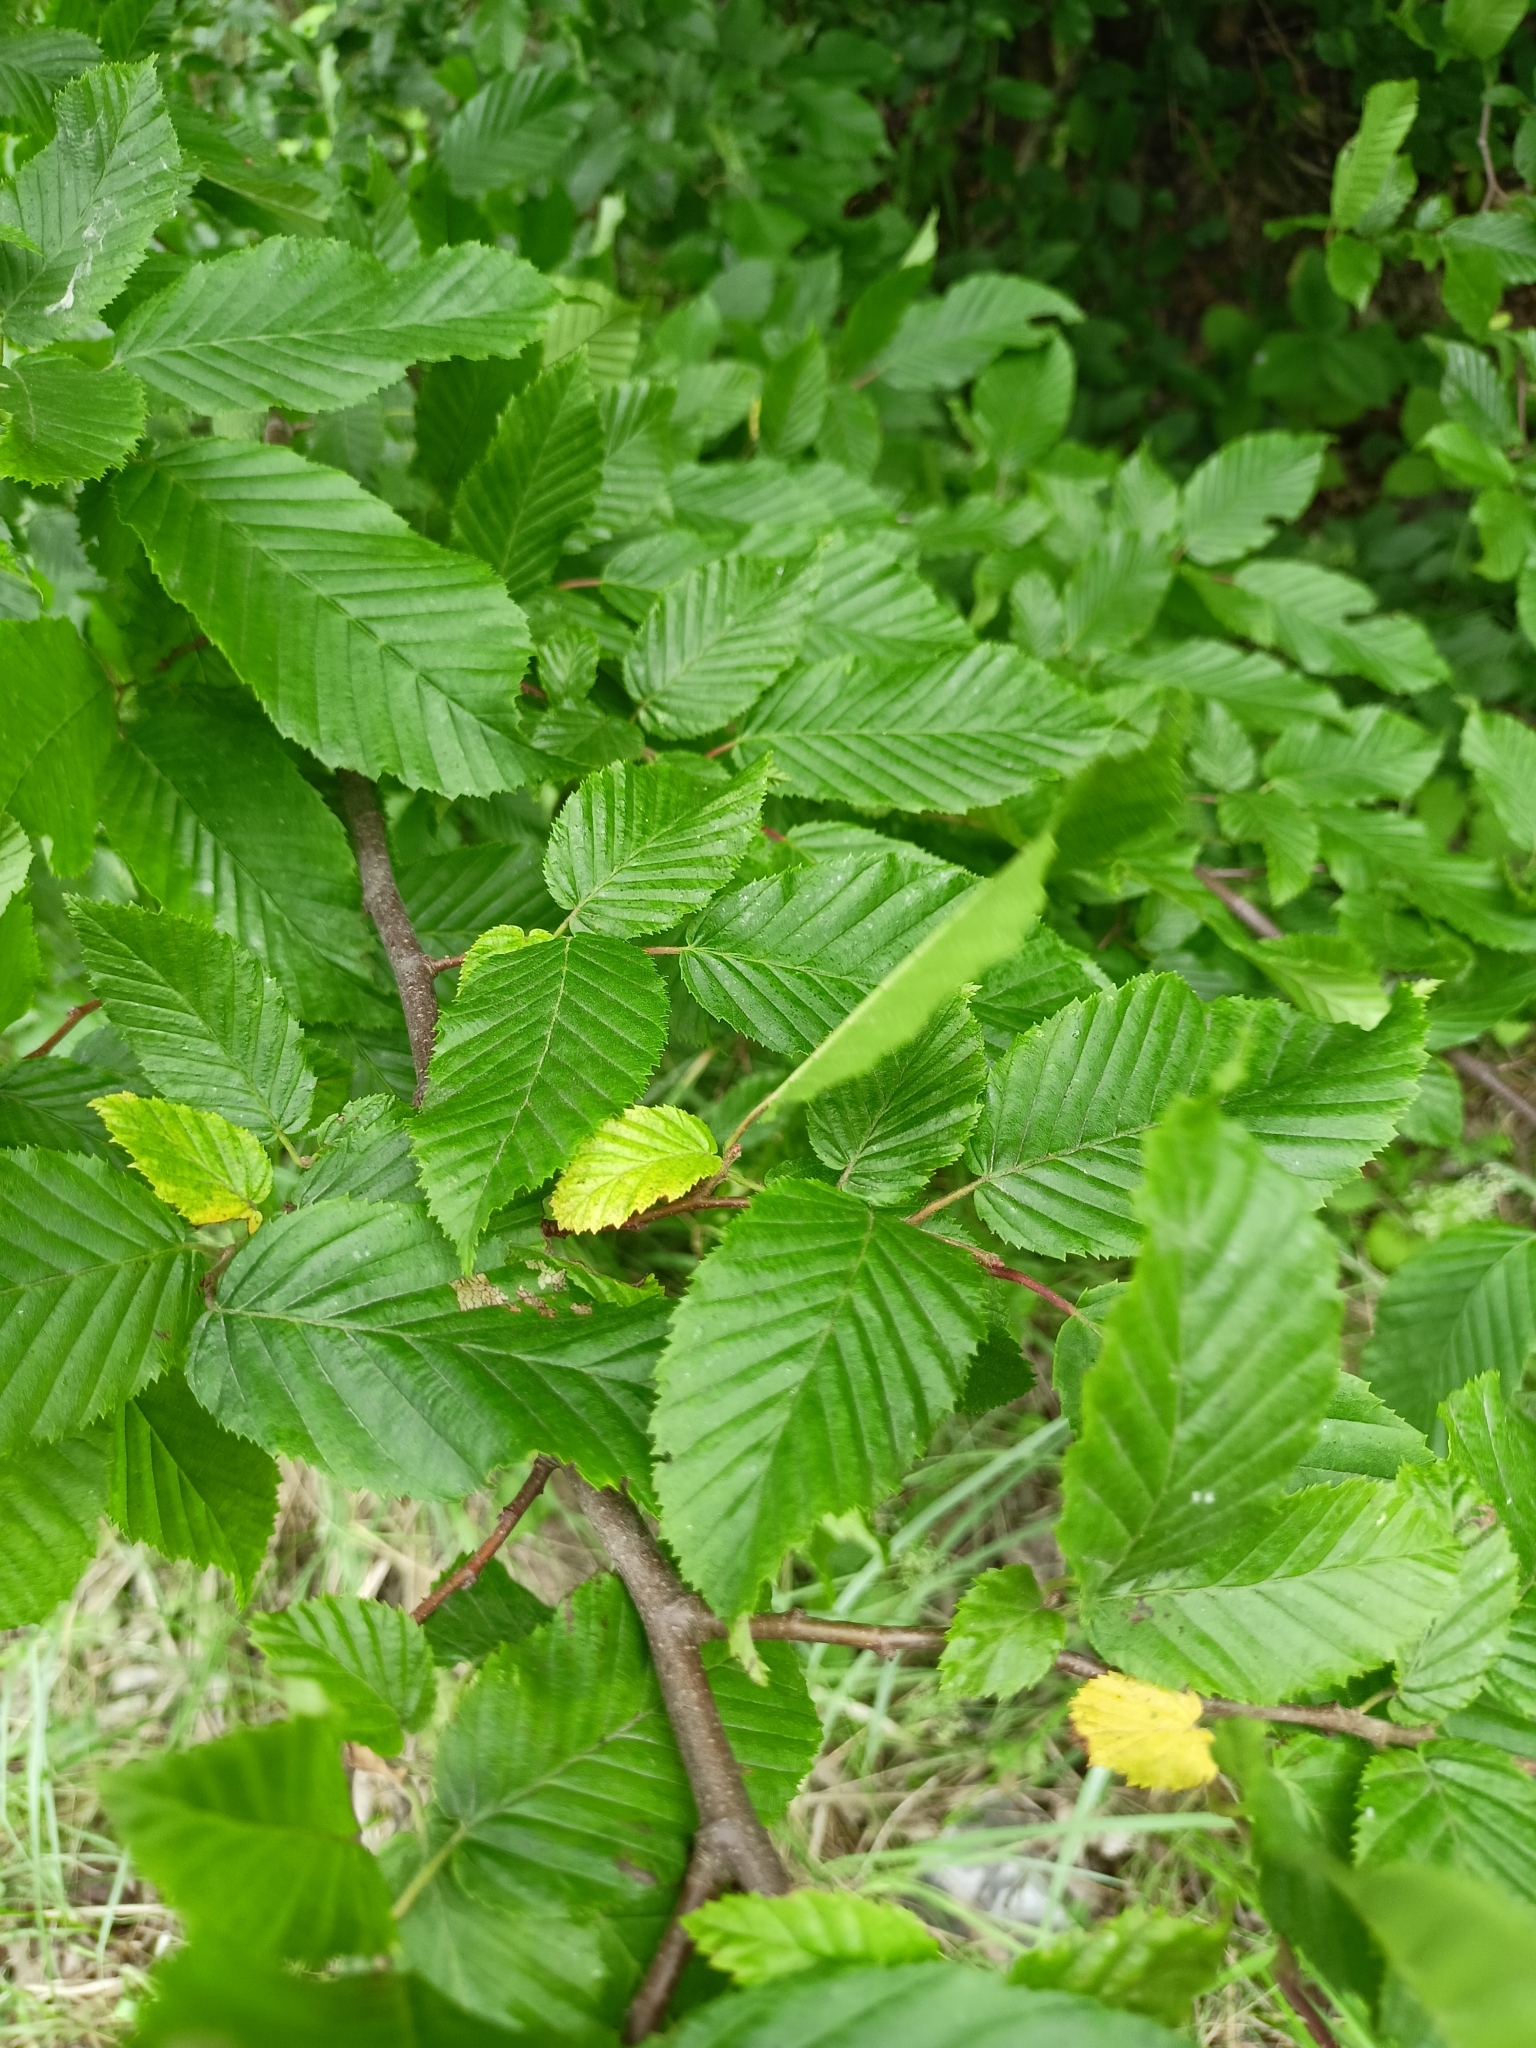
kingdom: Plantae
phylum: Tracheophyta
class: Magnoliopsida
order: Fagales
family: Betulaceae
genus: Carpinus
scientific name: Carpinus betulus
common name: Hornbeam
